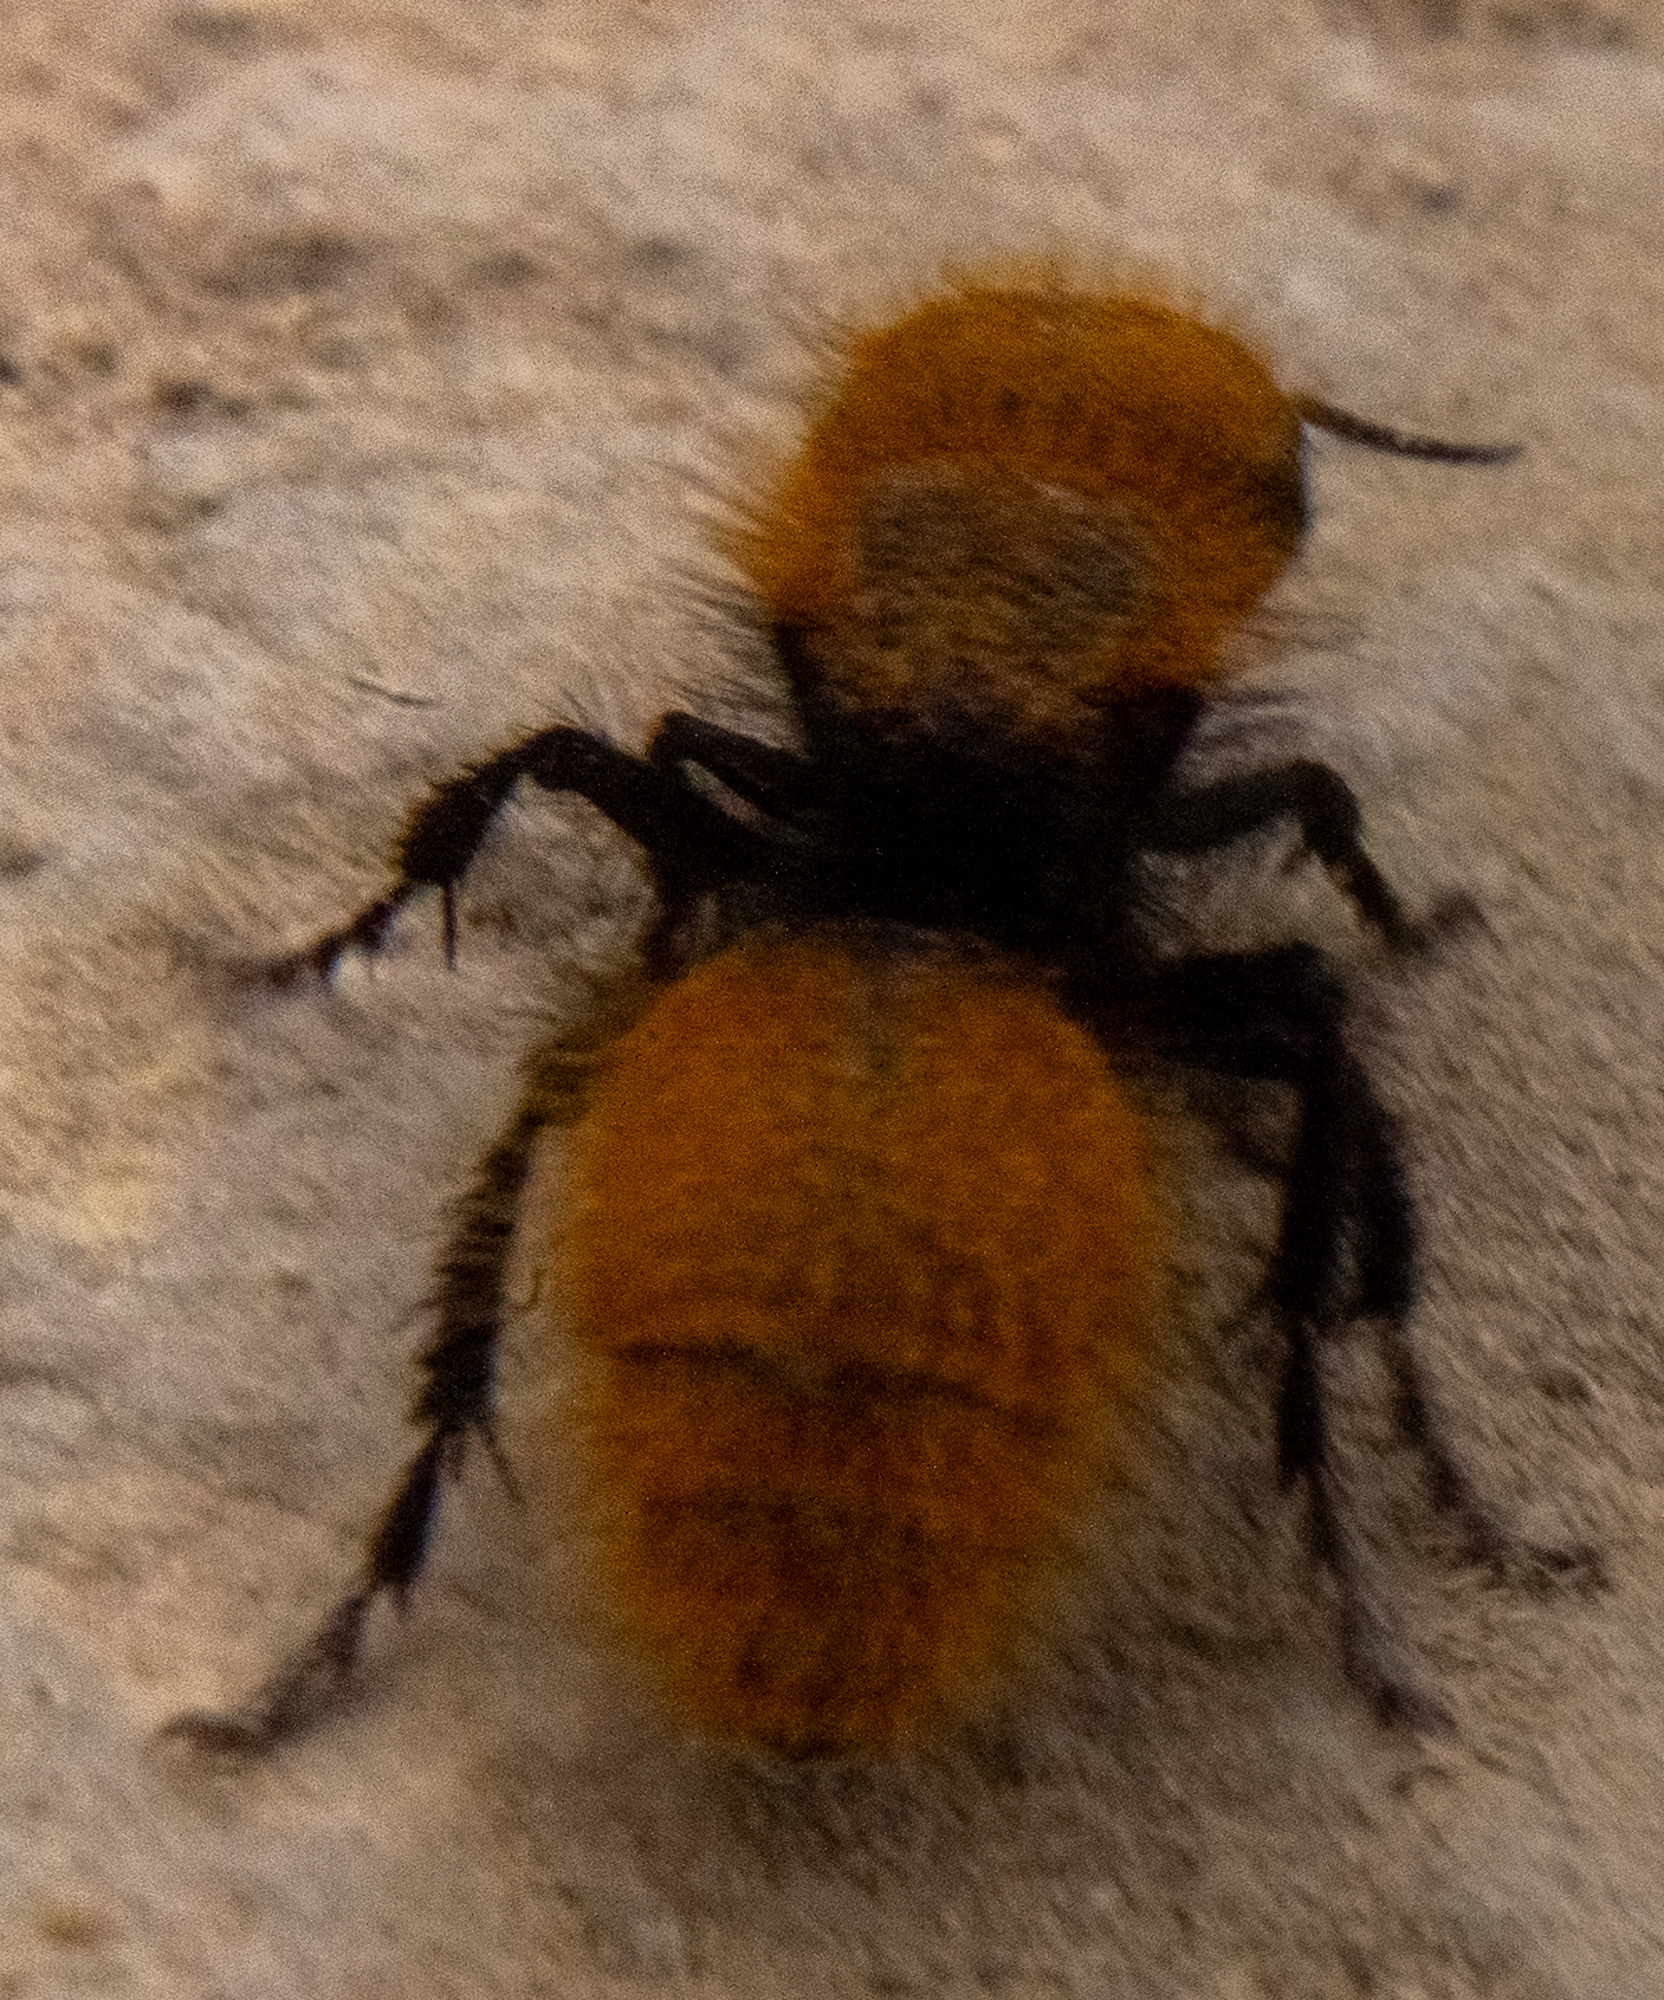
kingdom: Animalia
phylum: Arthropoda
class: Insecta
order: Hymenoptera
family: Mutillidae
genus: Dasymutilla
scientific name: Dasymutilla
